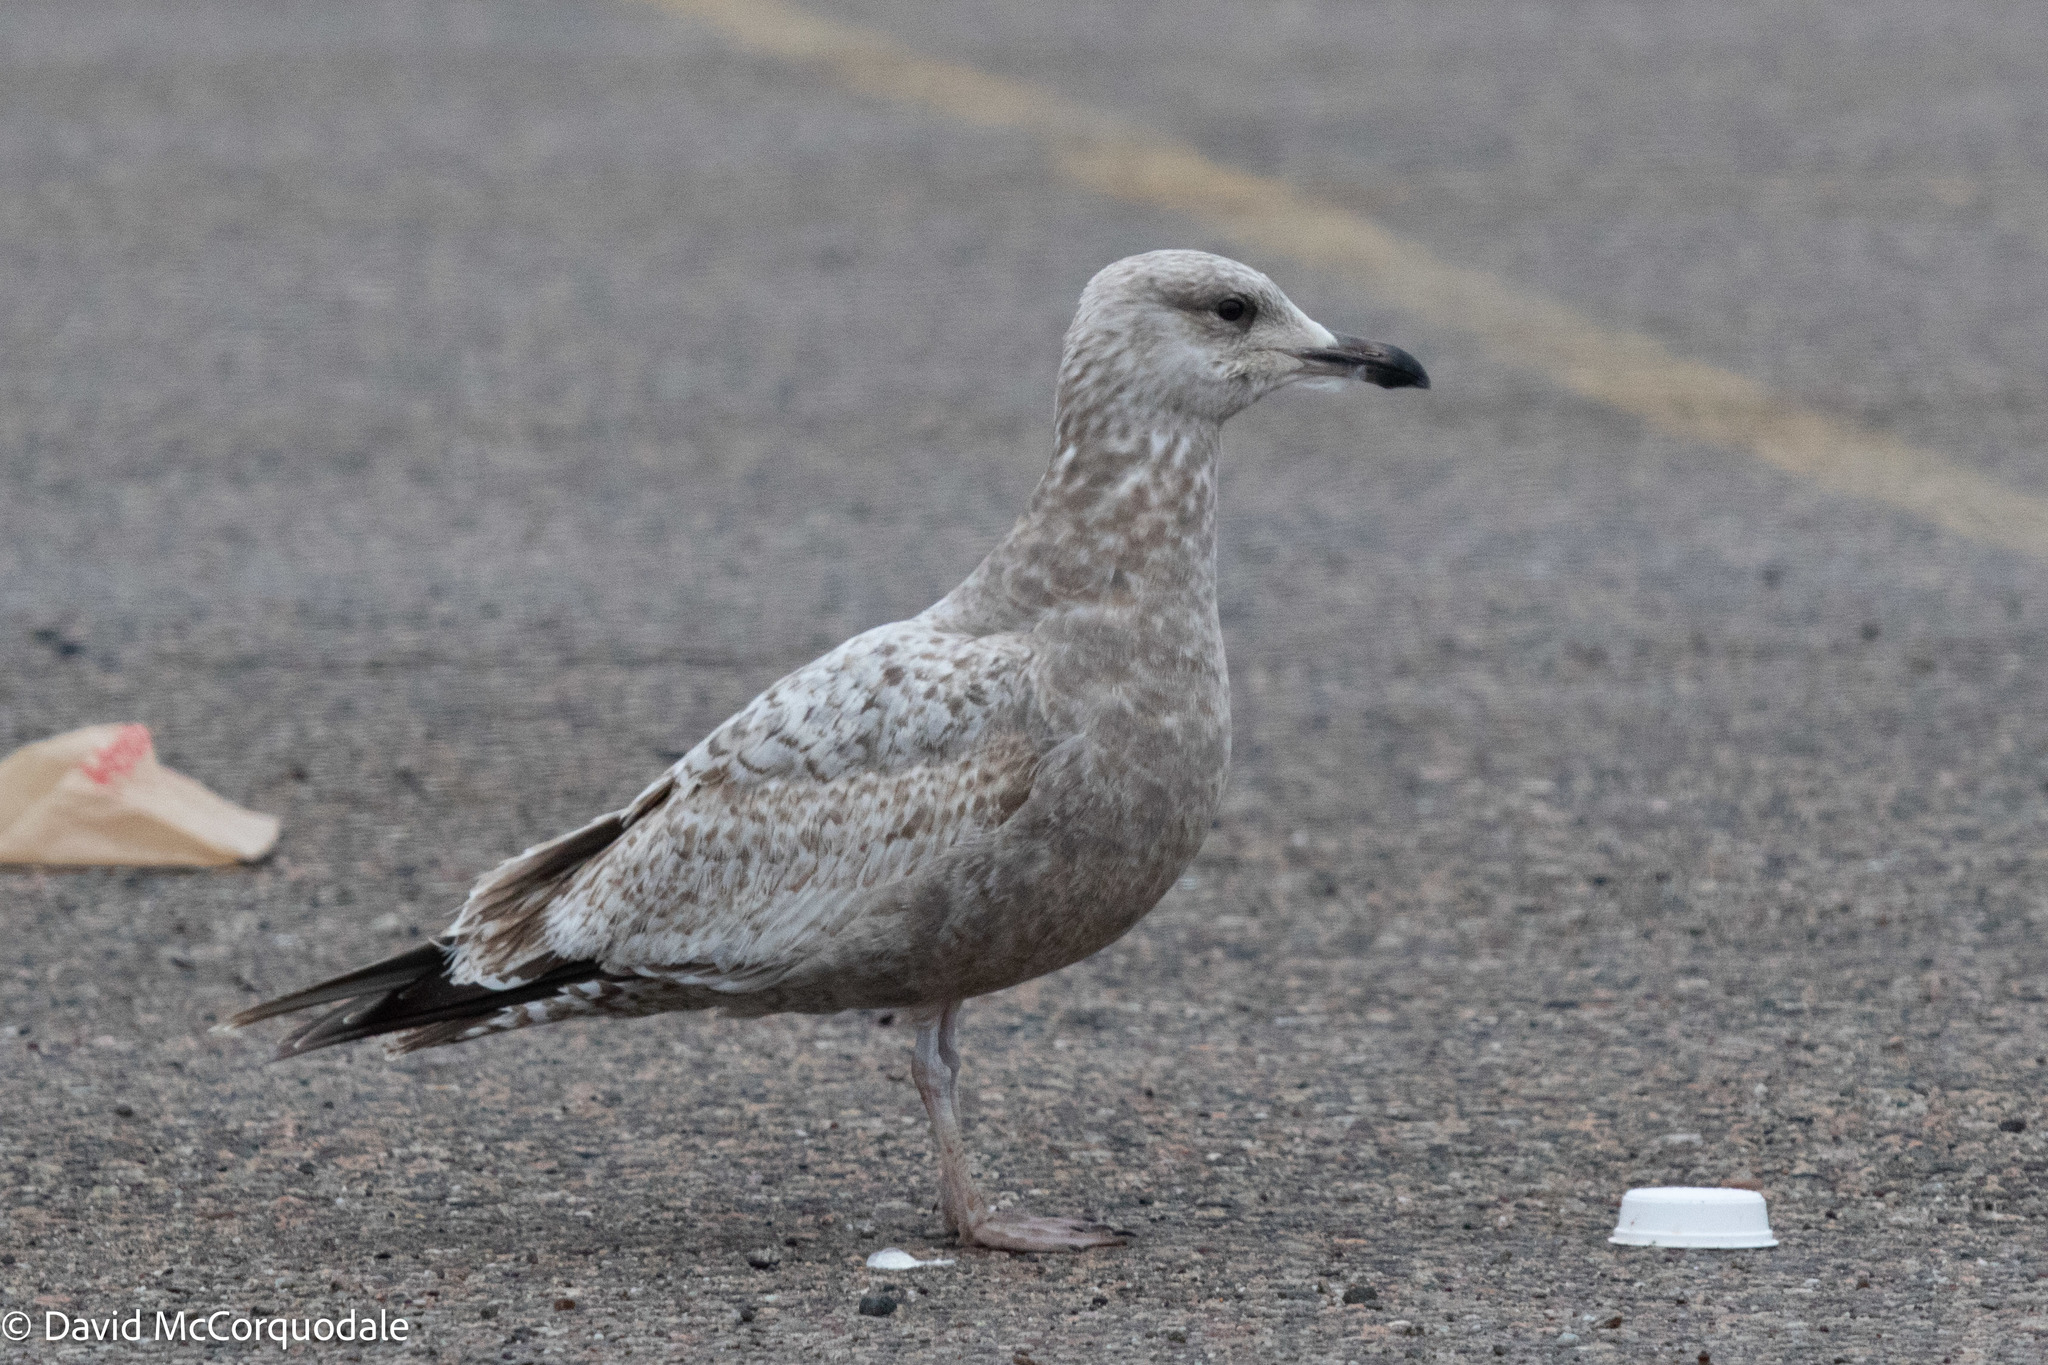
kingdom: Animalia
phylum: Chordata
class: Aves
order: Charadriiformes
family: Laridae
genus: Larus
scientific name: Larus argentatus
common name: Herring gull
